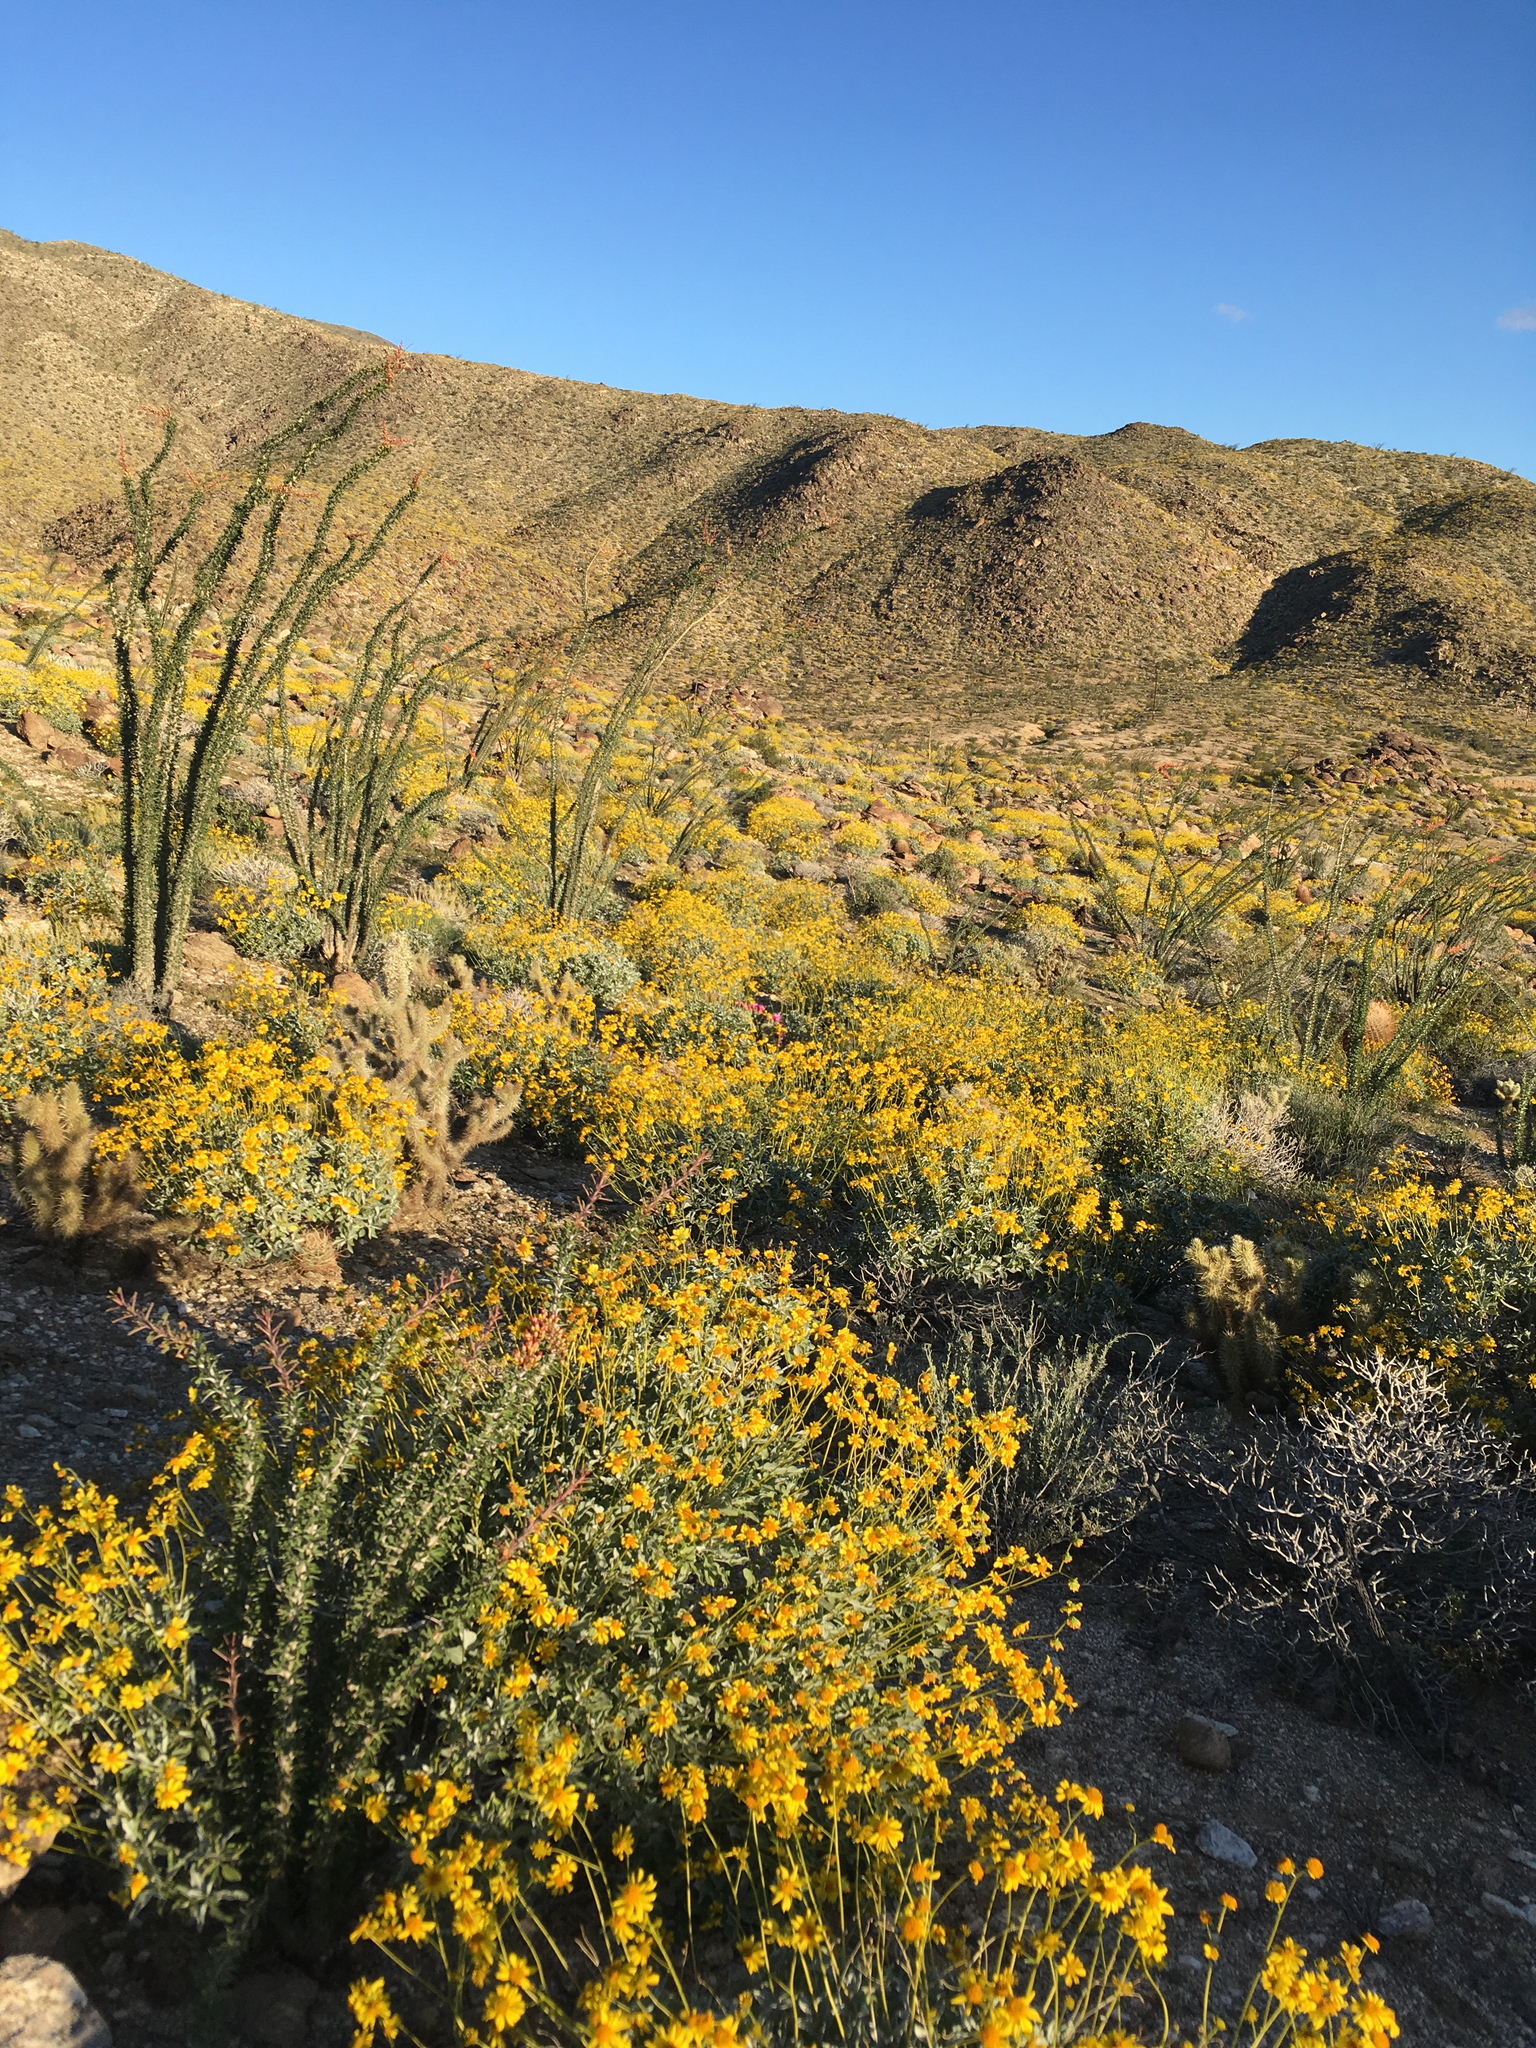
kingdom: Plantae
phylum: Tracheophyta
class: Magnoliopsida
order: Asterales
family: Asteraceae
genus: Encelia
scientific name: Encelia farinosa
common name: Brittlebush
